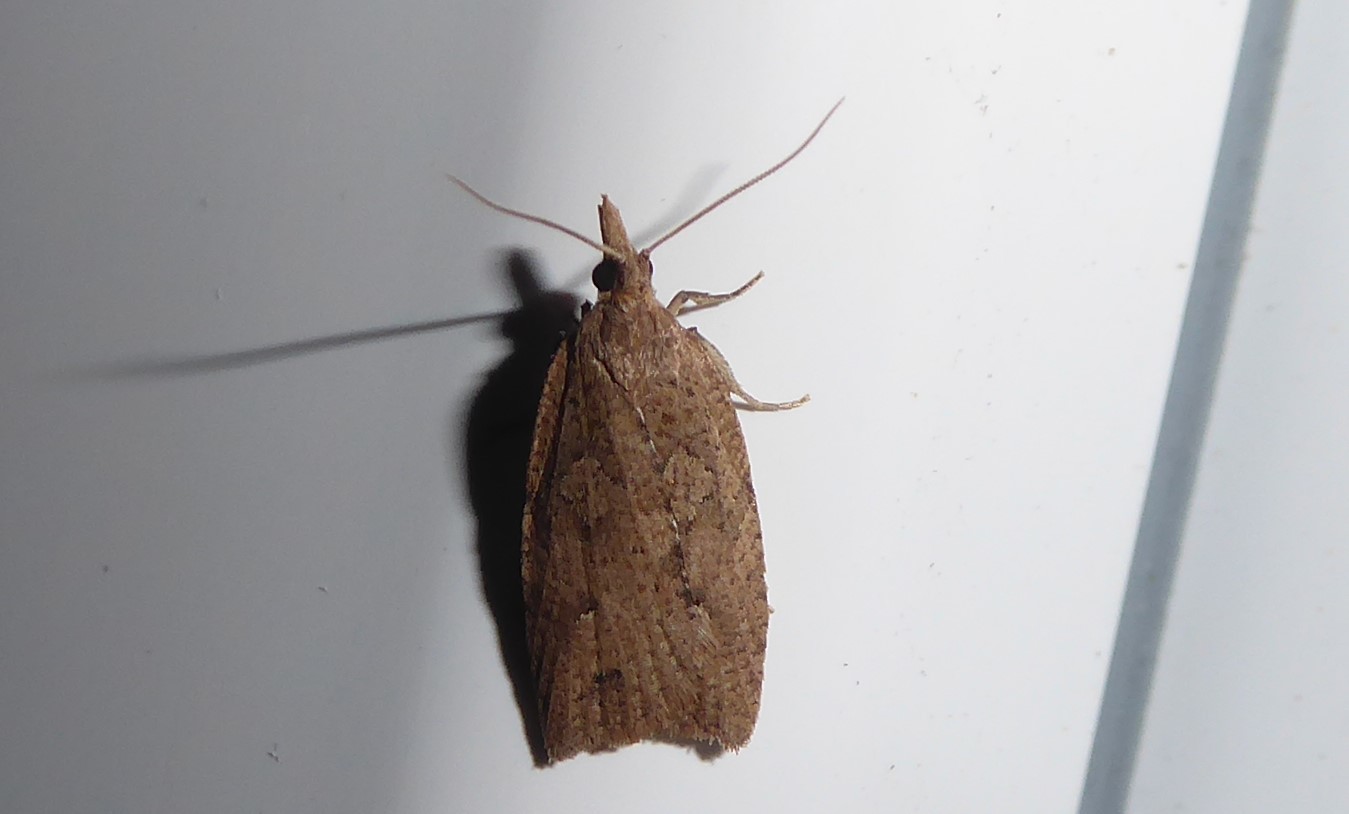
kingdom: Animalia
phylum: Arthropoda
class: Insecta
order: Lepidoptera
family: Tortricidae
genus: Planotortrix
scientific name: Planotortrix notophaea
